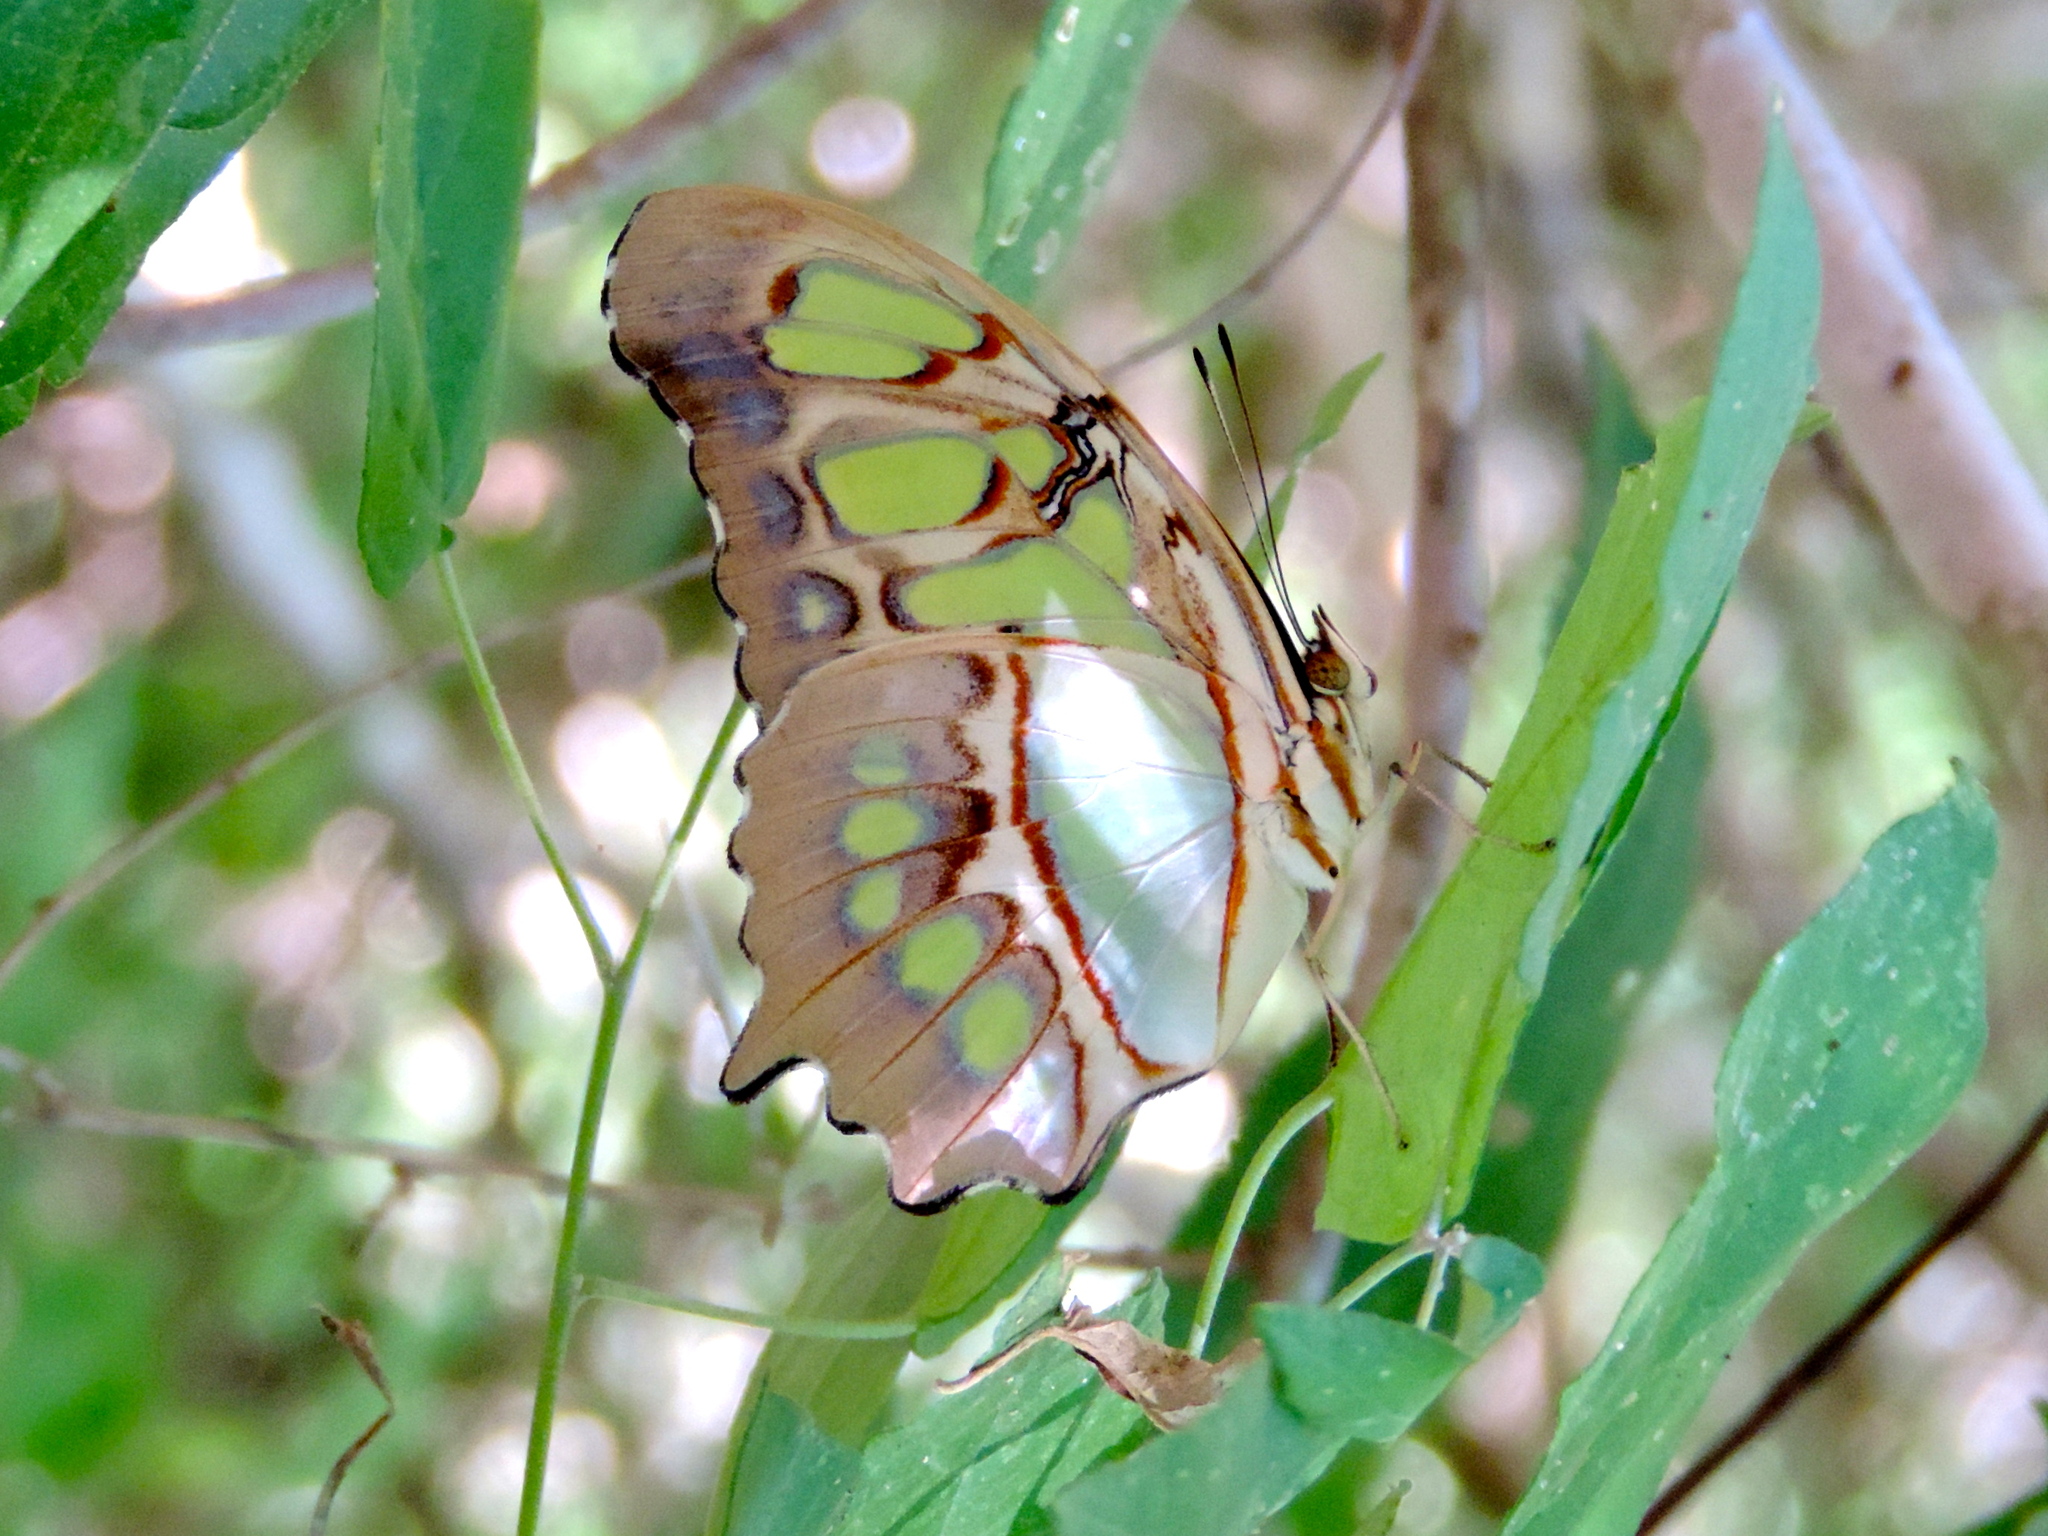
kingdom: Animalia
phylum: Arthropoda
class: Insecta
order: Lepidoptera
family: Nymphalidae
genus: Siproeta
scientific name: Siproeta stelenes
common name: Malachite
